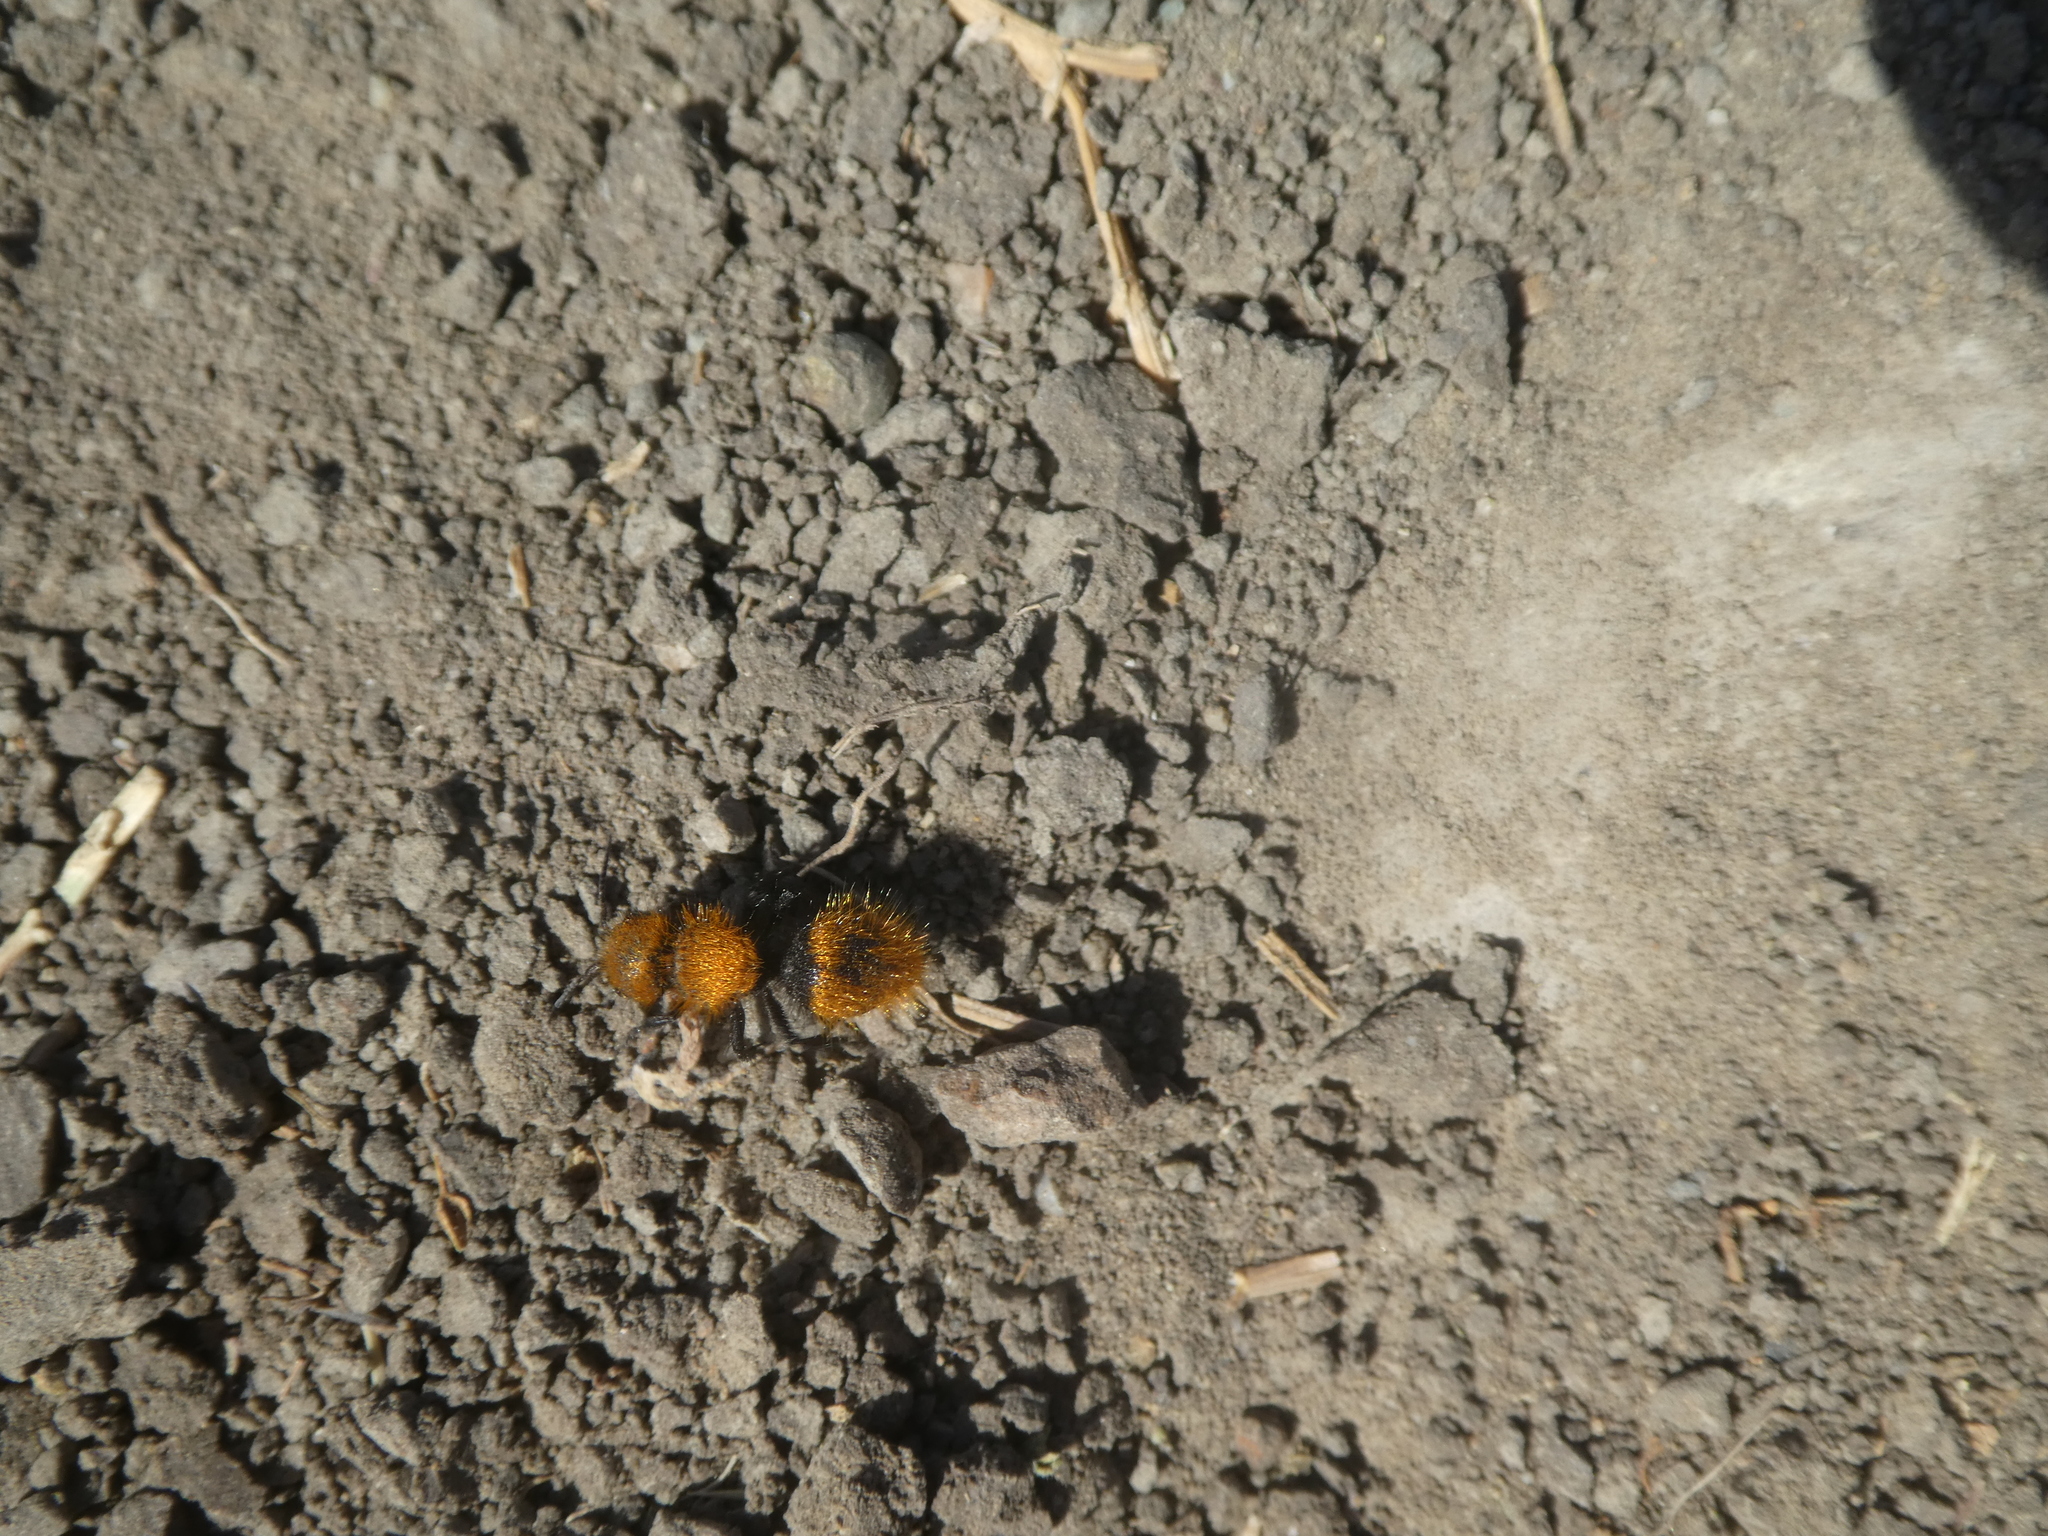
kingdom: Animalia
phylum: Arthropoda
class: Insecta
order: Hymenoptera
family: Mutillidae
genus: Dasymutilla
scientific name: Dasymutilla
